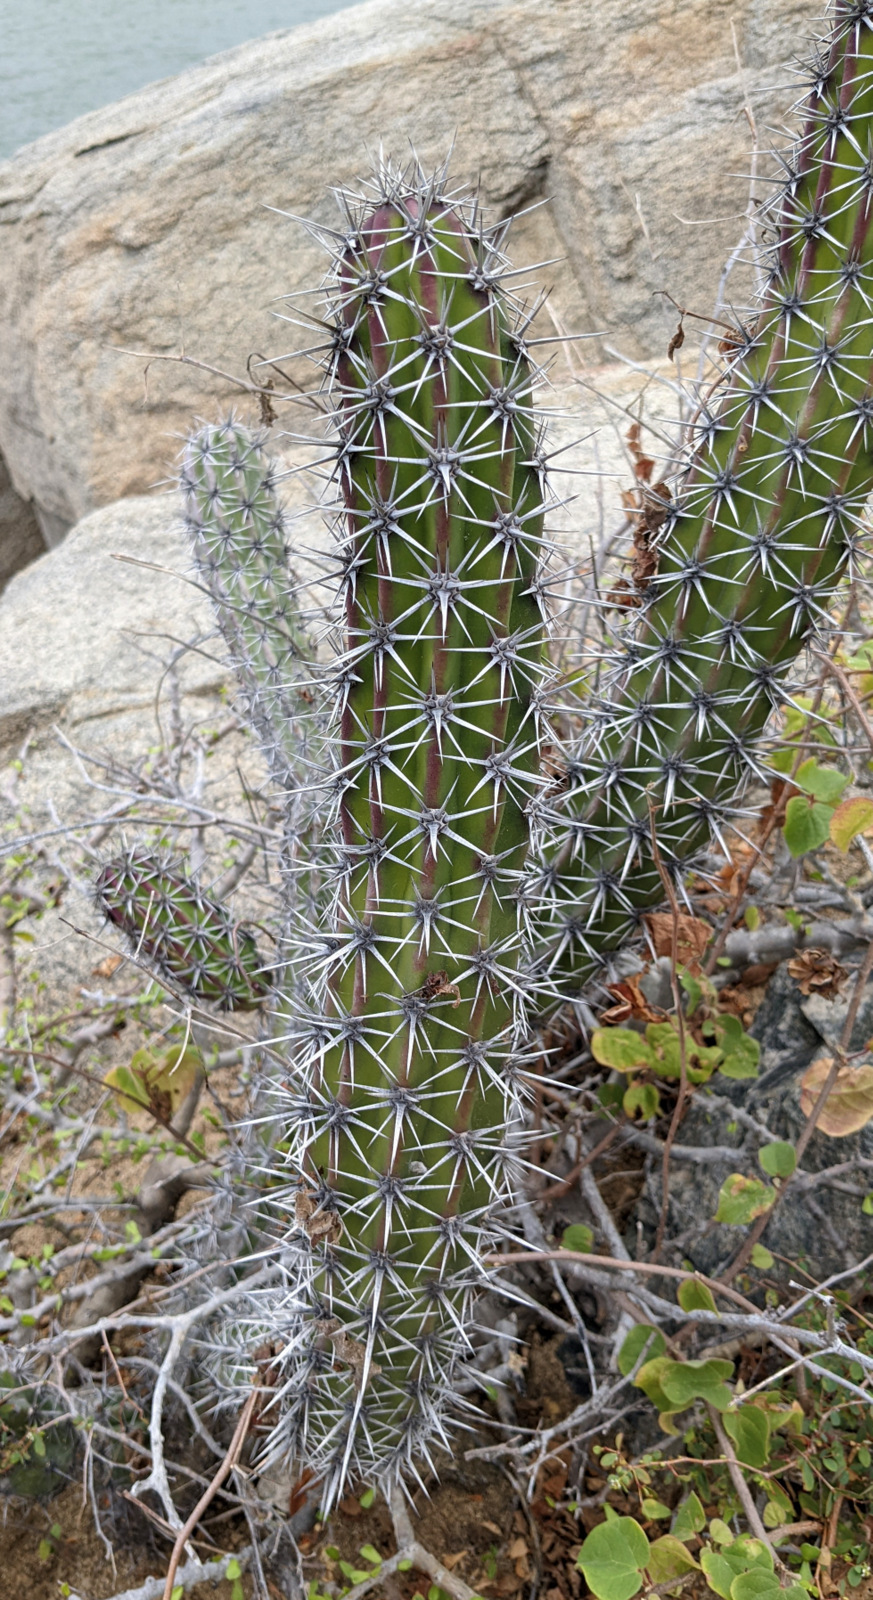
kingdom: Plantae
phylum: Tracheophyta
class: Magnoliopsida
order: Caryophyllales
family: Cactaceae
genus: Stenocereus
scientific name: Stenocereus gummosus
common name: Dagger cactus
